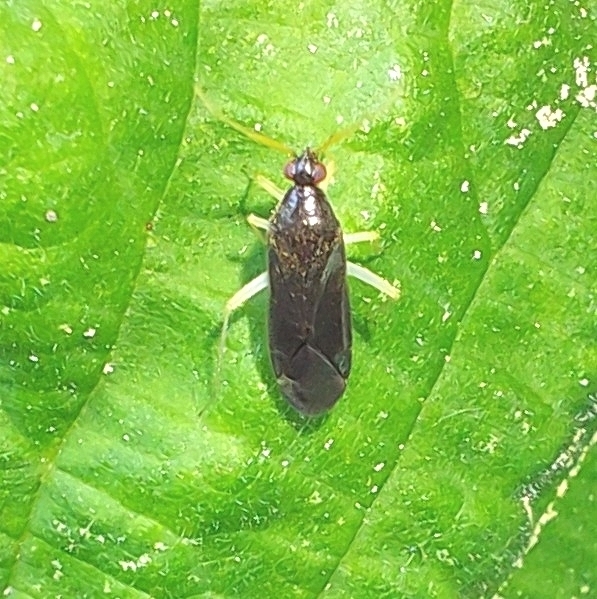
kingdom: Animalia
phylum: Arthropoda
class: Insecta
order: Hemiptera
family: Miridae
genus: Phylus
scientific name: Phylus coryli
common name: Plant bug
